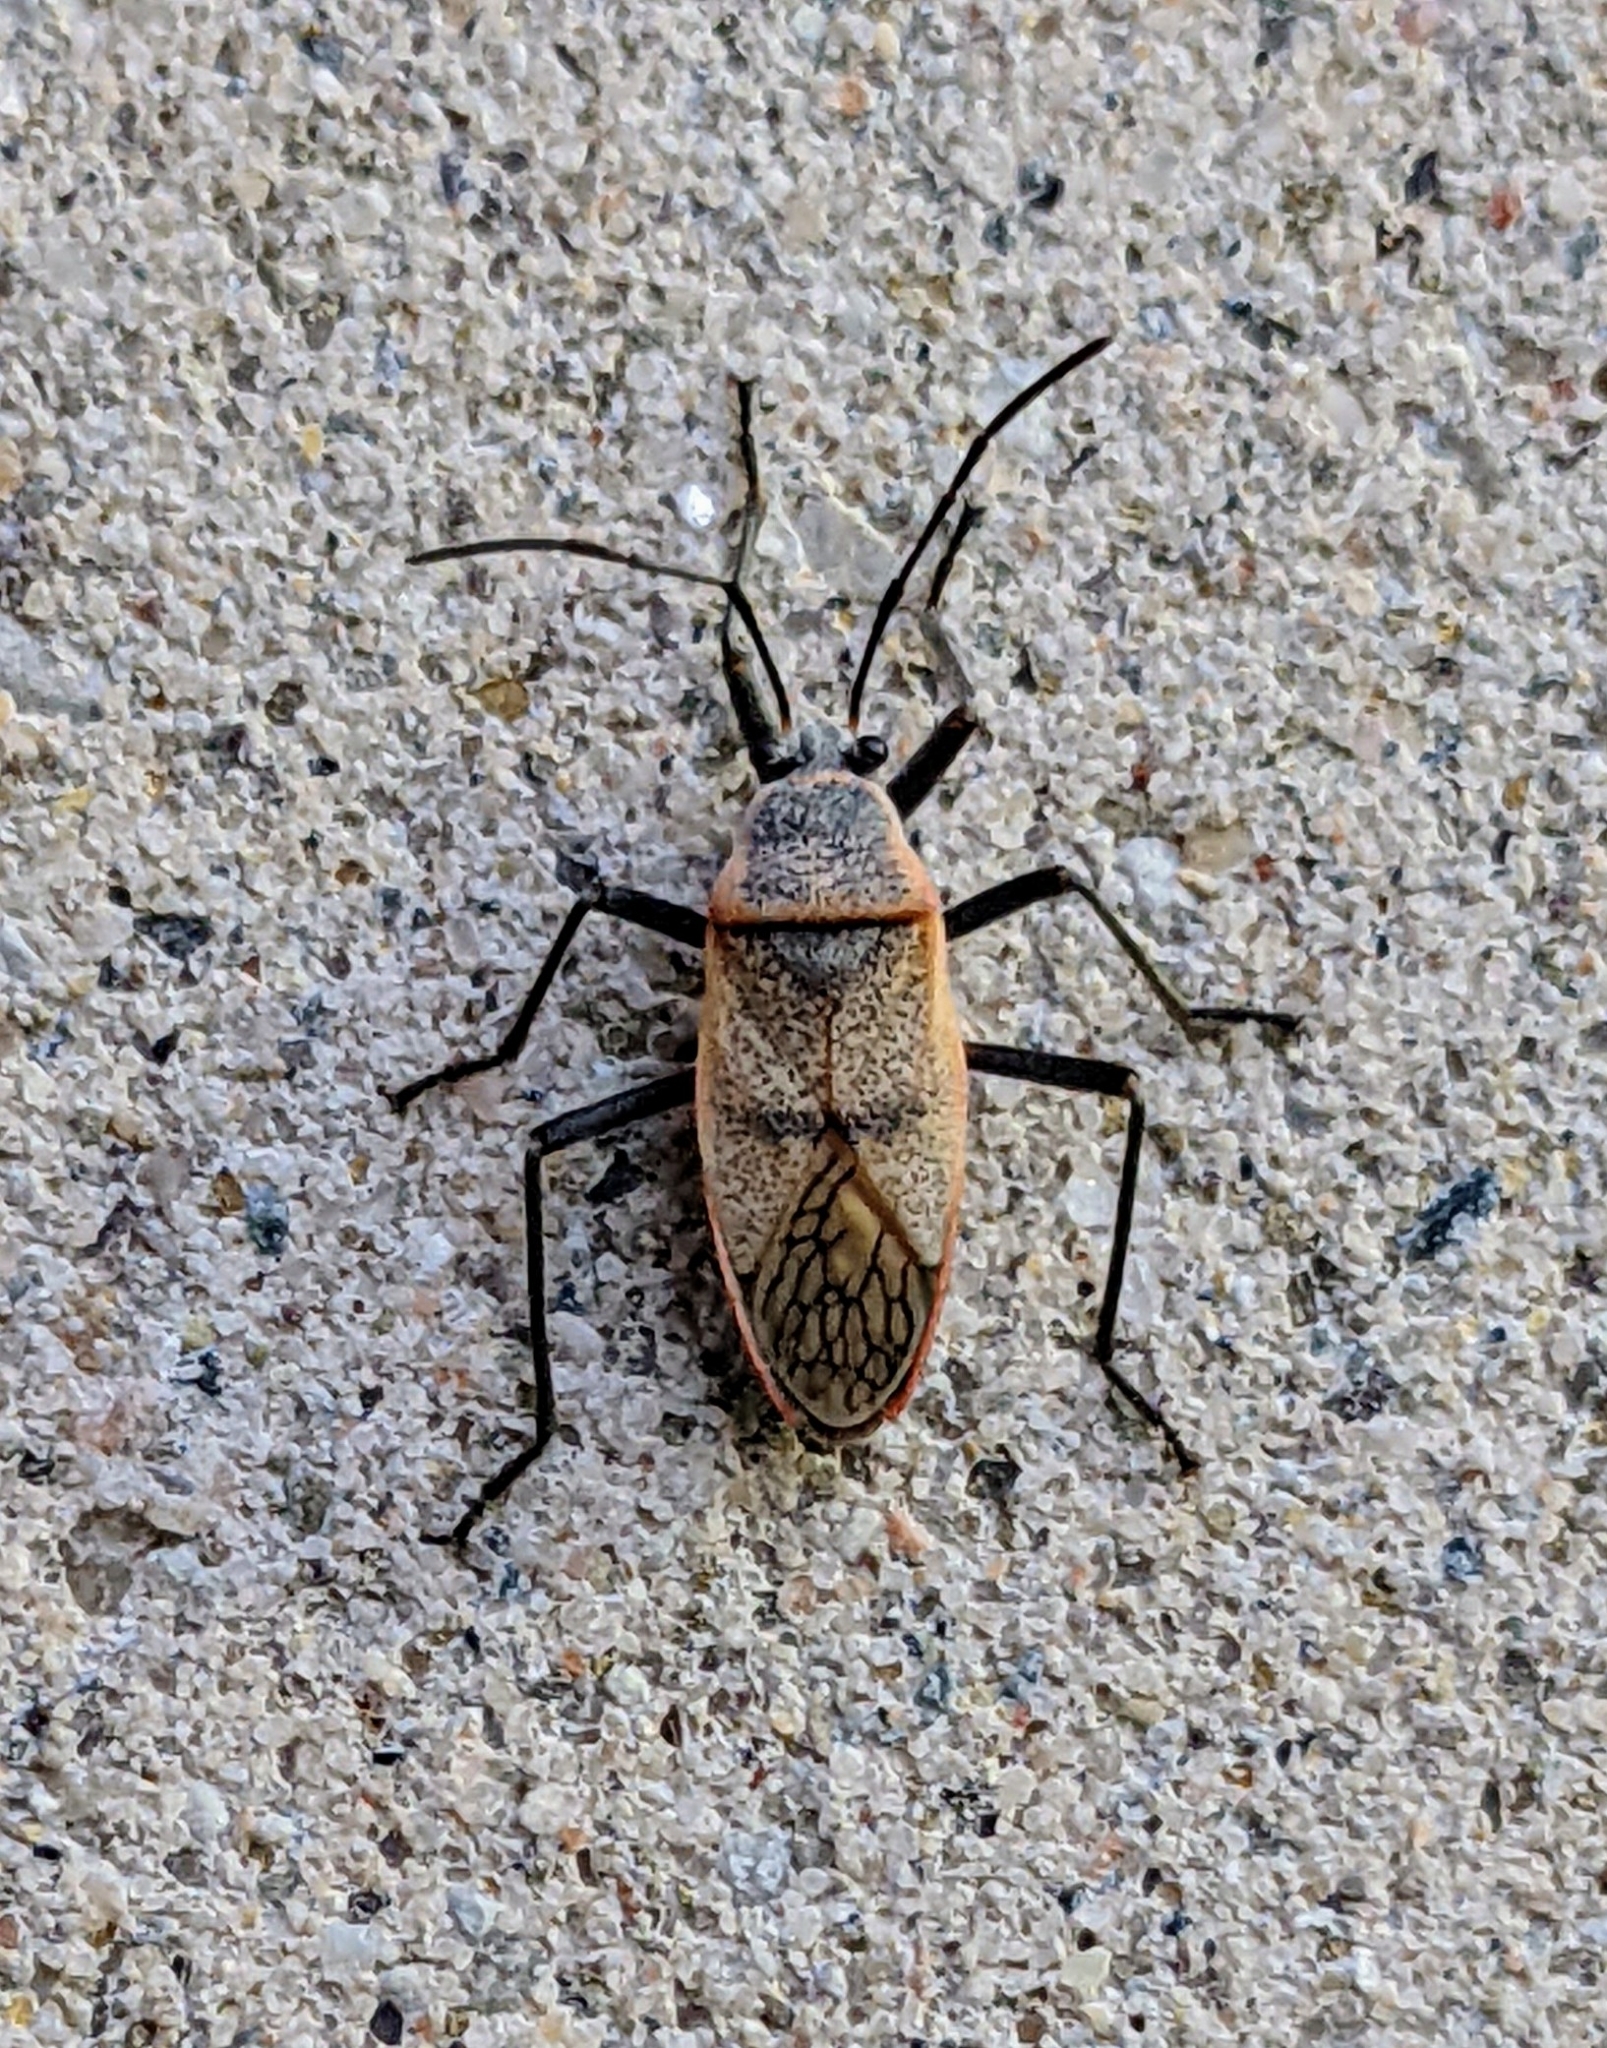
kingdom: Animalia
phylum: Arthropoda
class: Insecta
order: Hemiptera
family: Largidae
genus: Largus
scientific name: Largus maculatus
